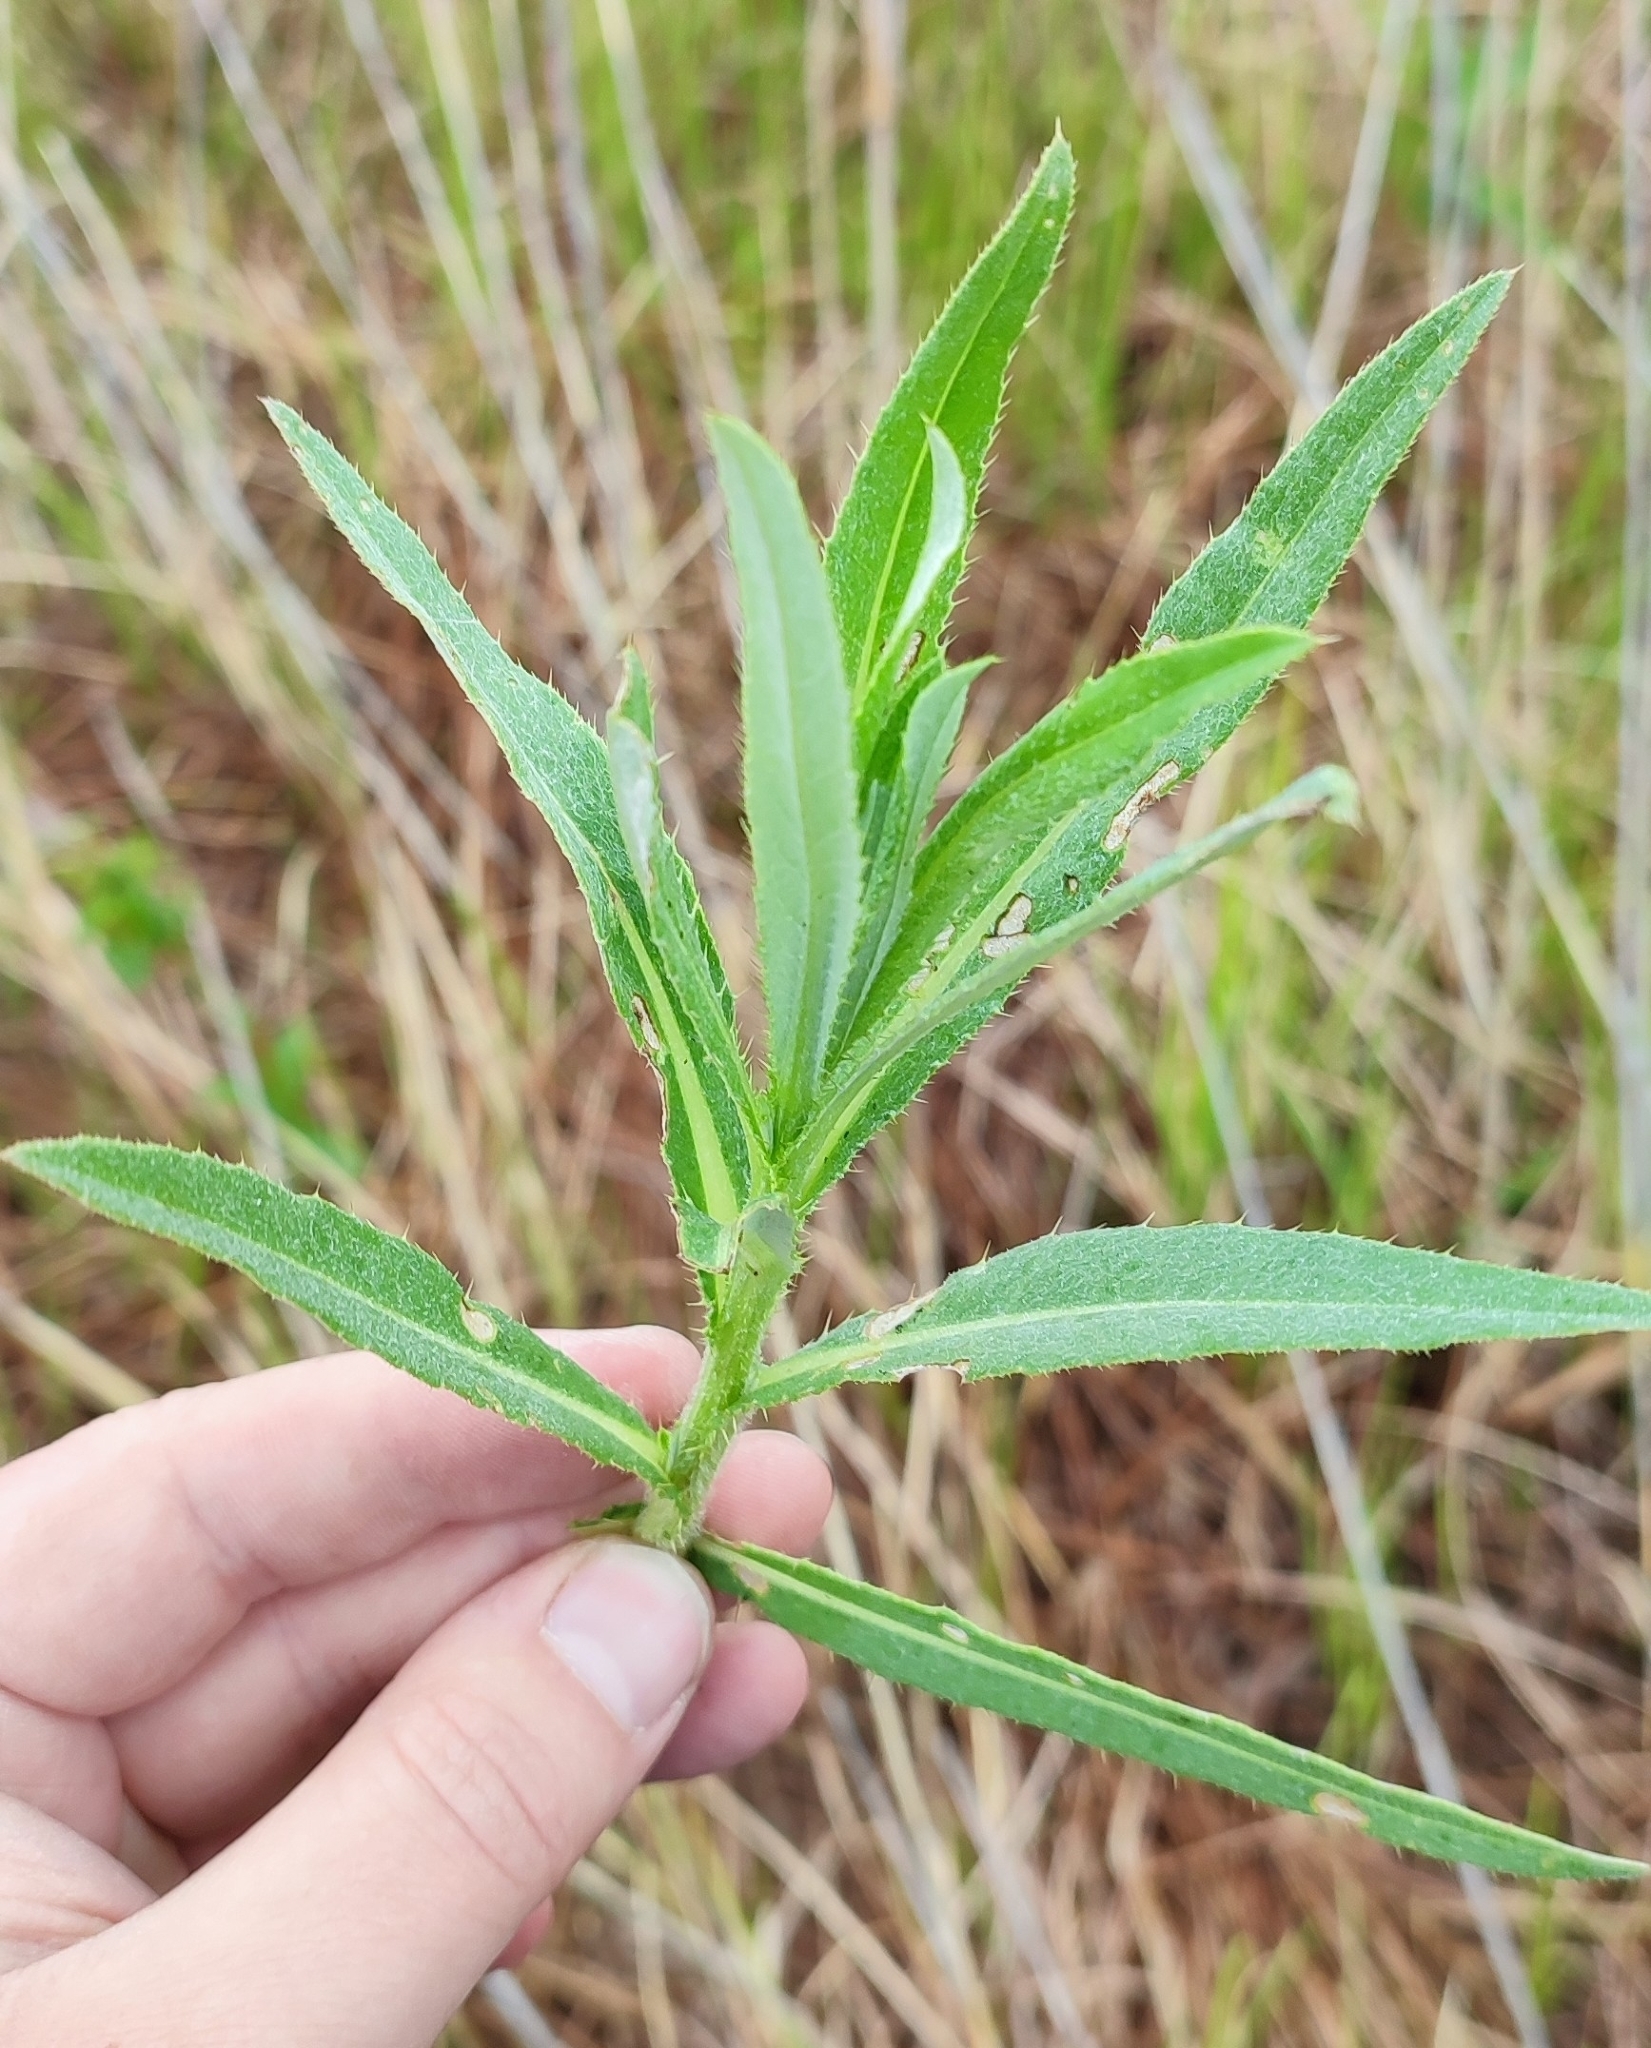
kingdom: Plantae
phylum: Tracheophyta
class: Magnoliopsida
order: Asterales
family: Asteraceae
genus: Cirsium
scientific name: Cirsium arvense
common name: Creeping thistle
